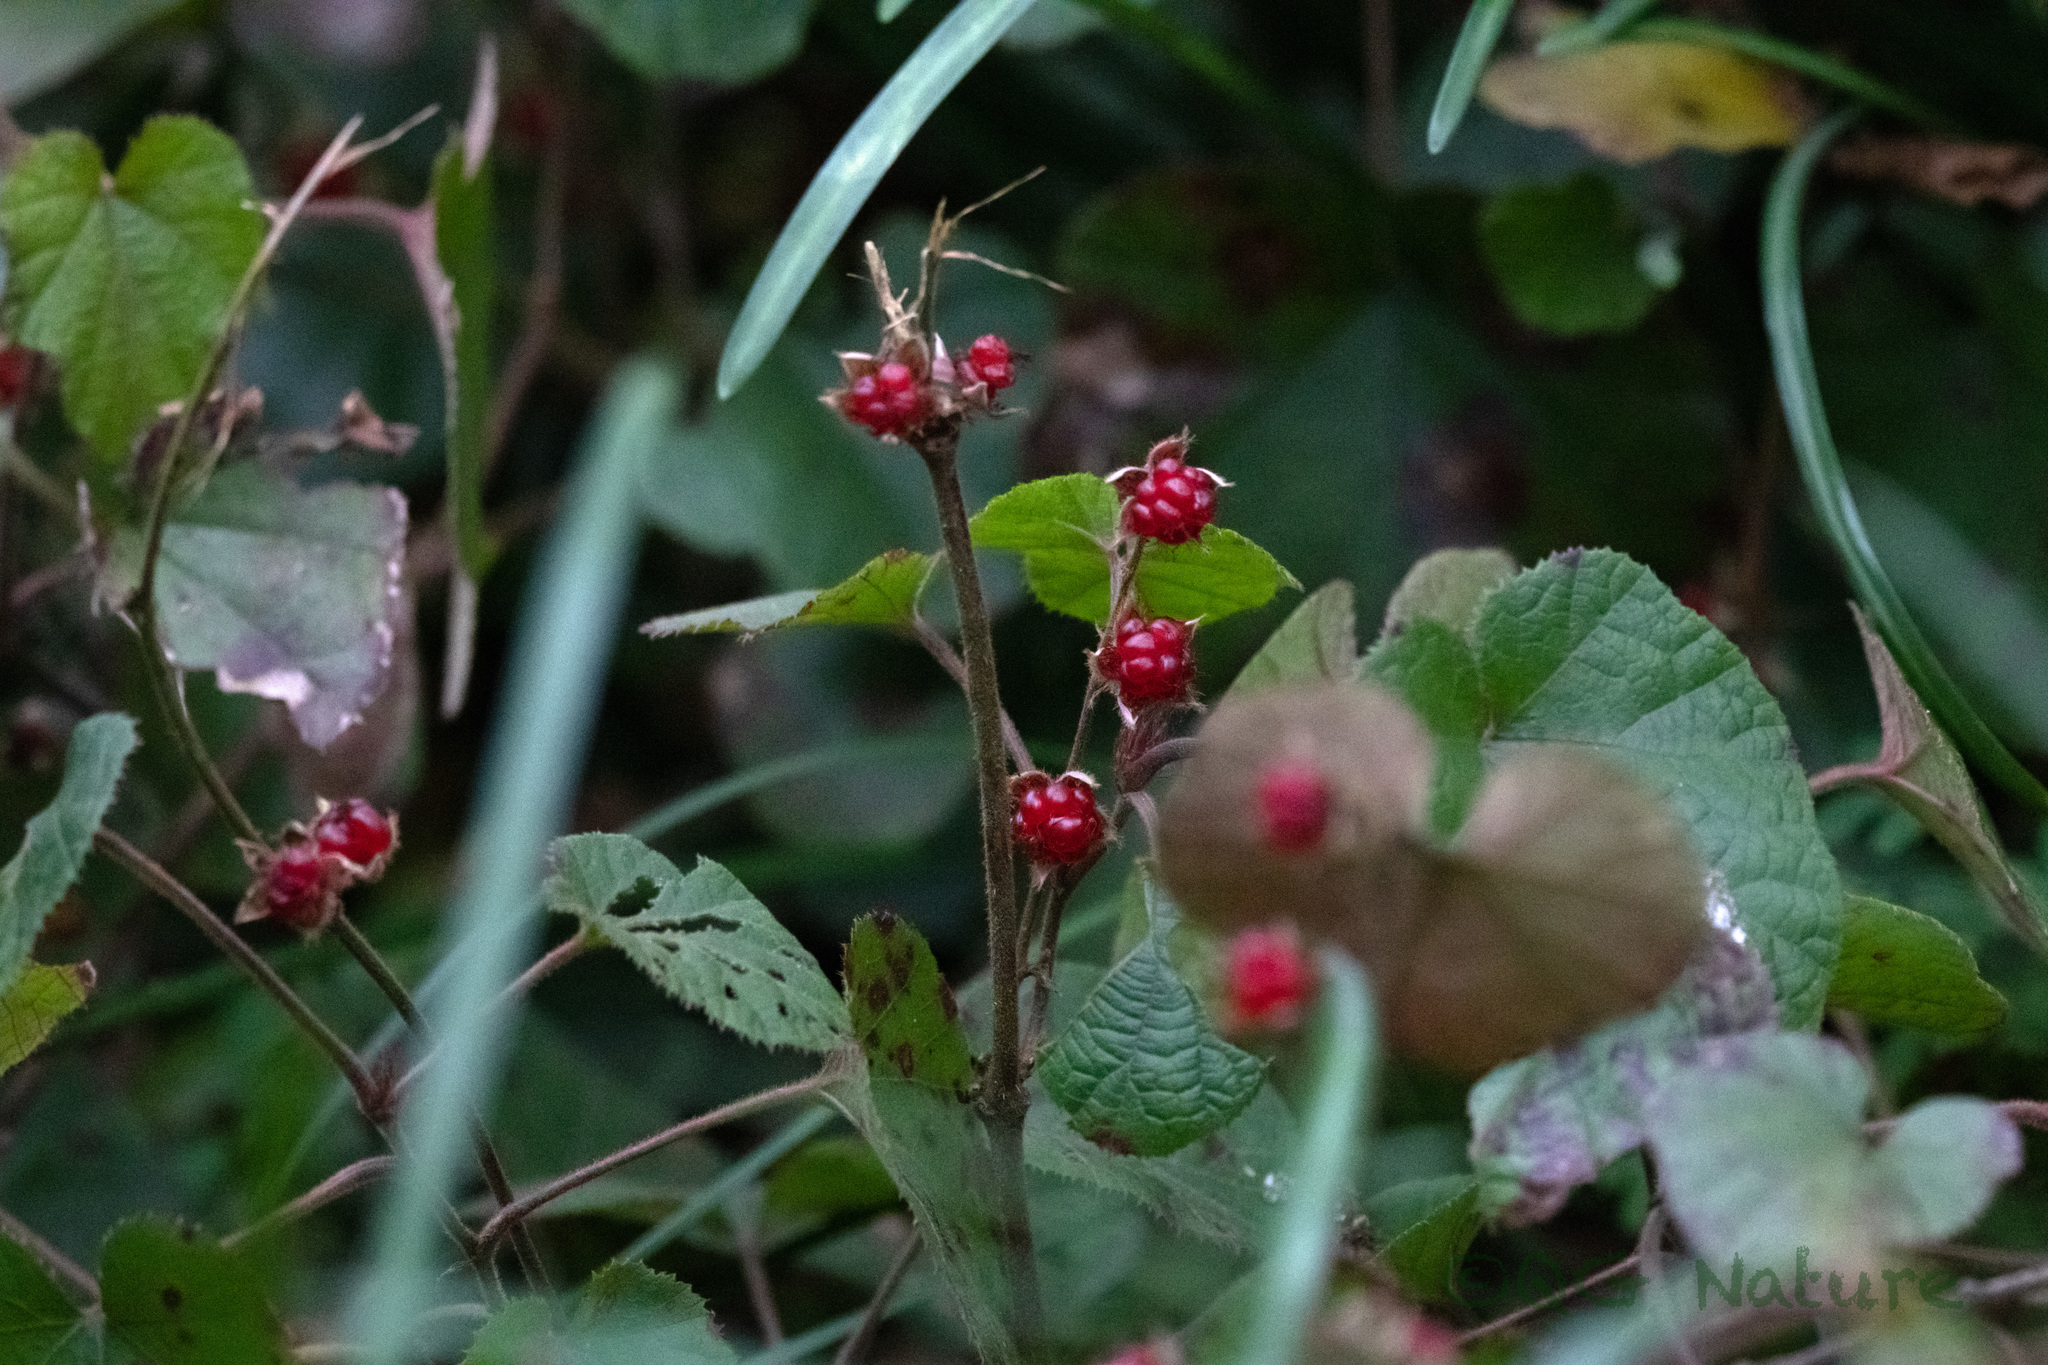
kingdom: Plantae
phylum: Tracheophyta
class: Magnoliopsida
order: Rosales
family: Rosaceae
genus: Rubus
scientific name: Rubus buergeri
